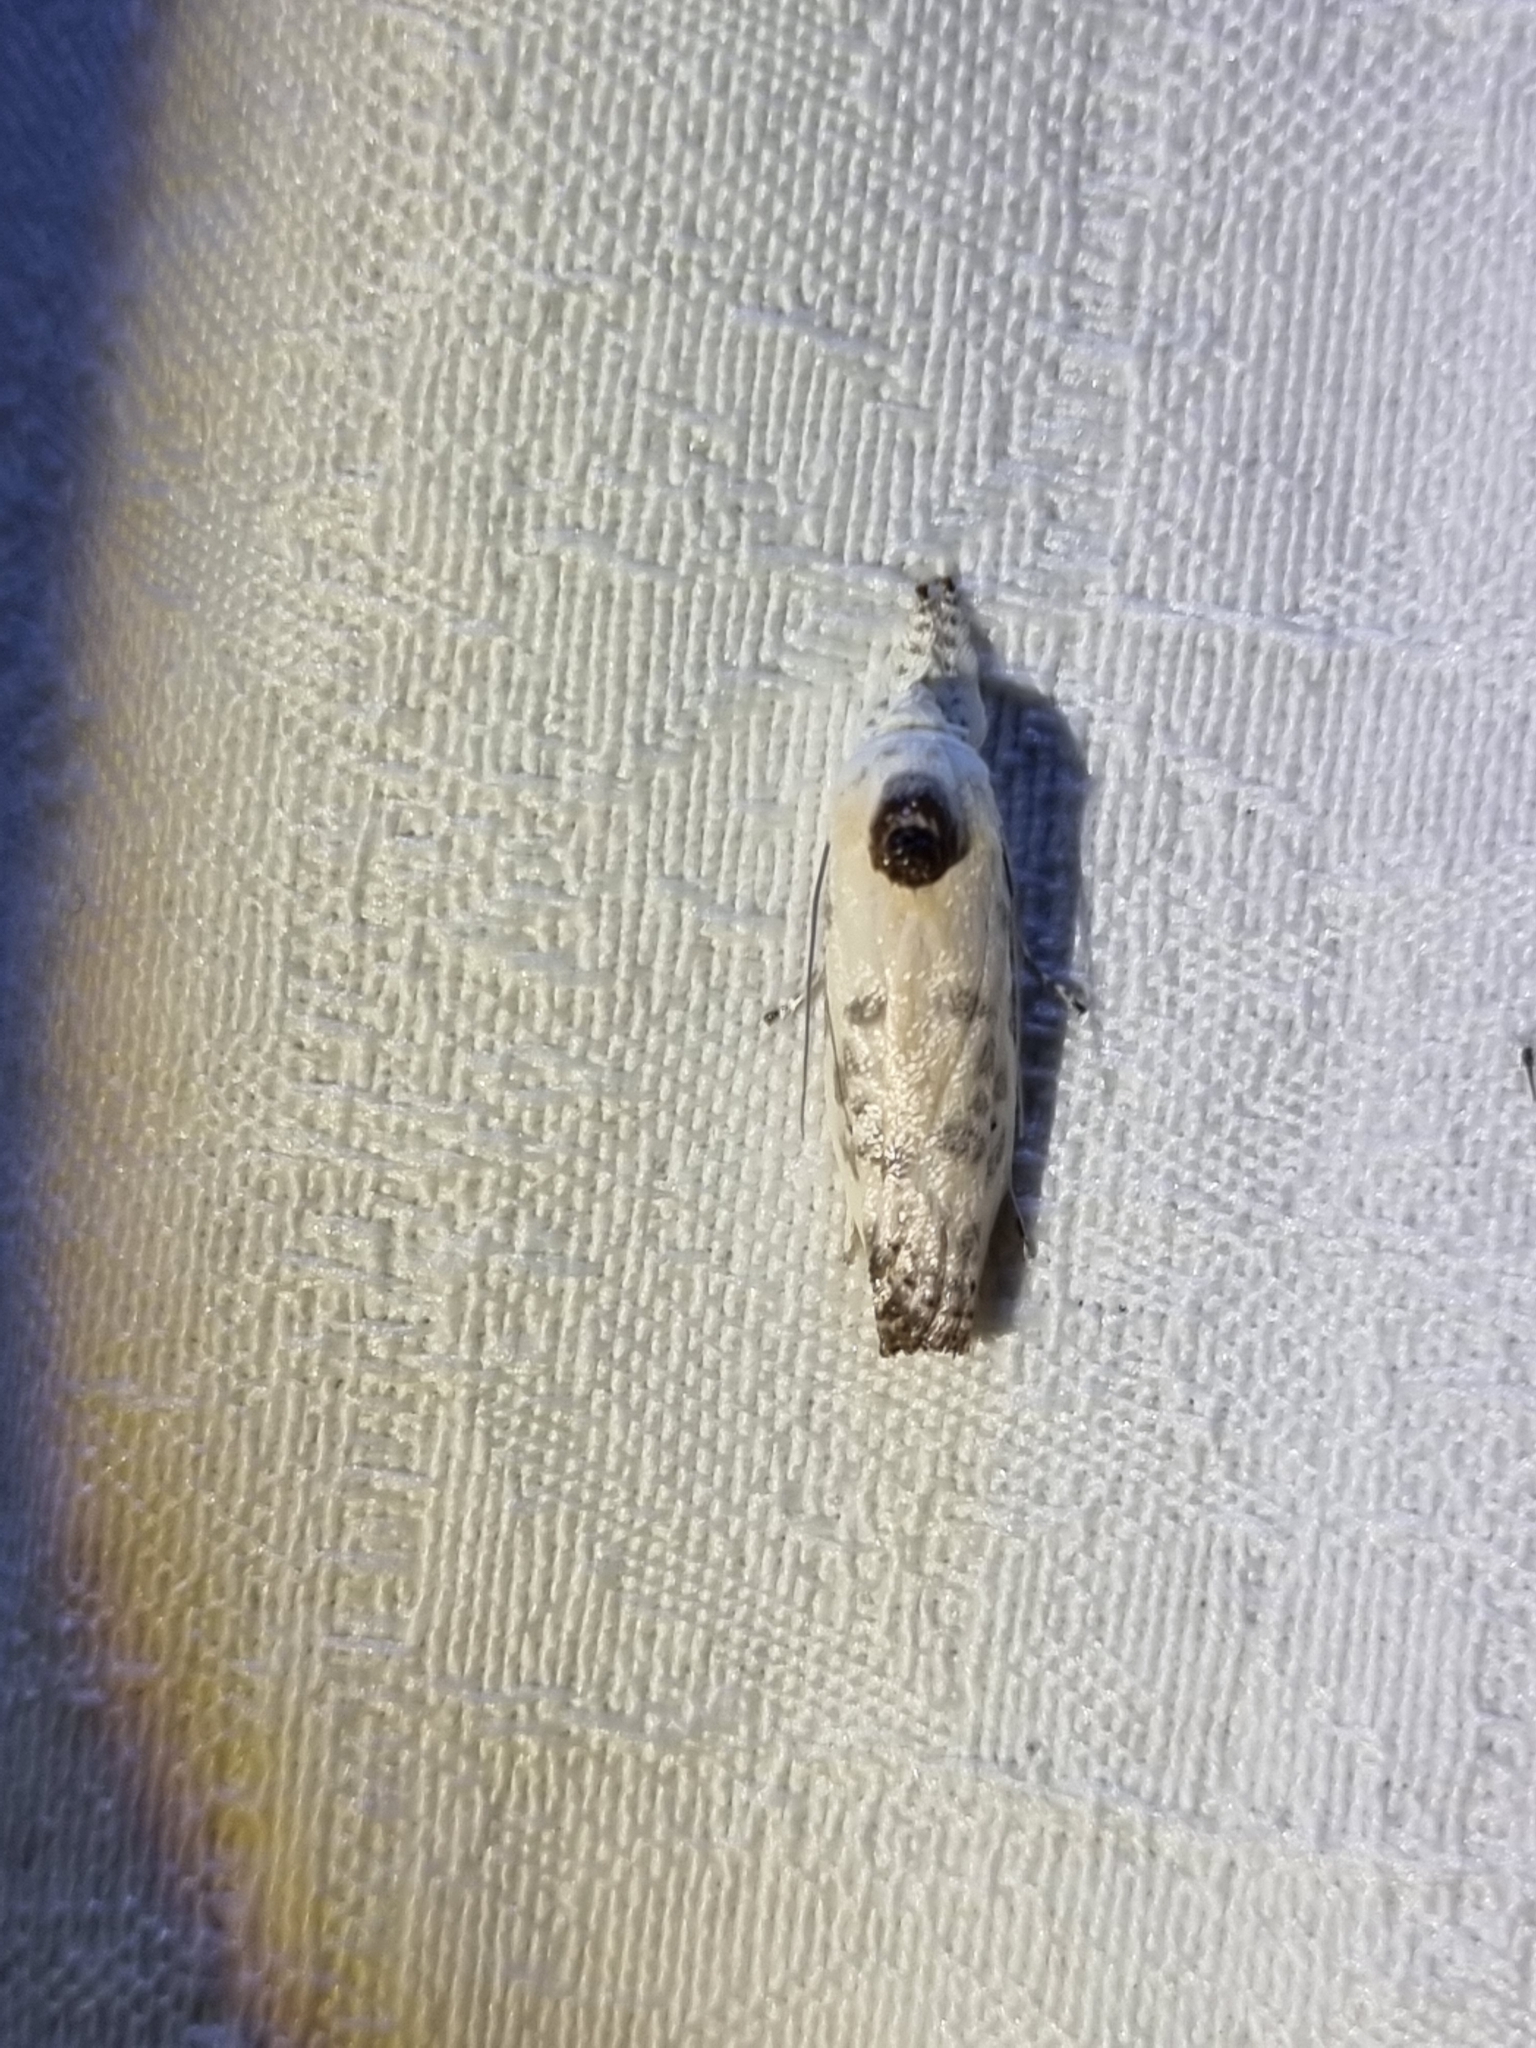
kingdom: Animalia
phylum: Arthropoda
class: Insecta
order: Lepidoptera
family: Xyloryctidae
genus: Arignota
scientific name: Arignota stercorata
